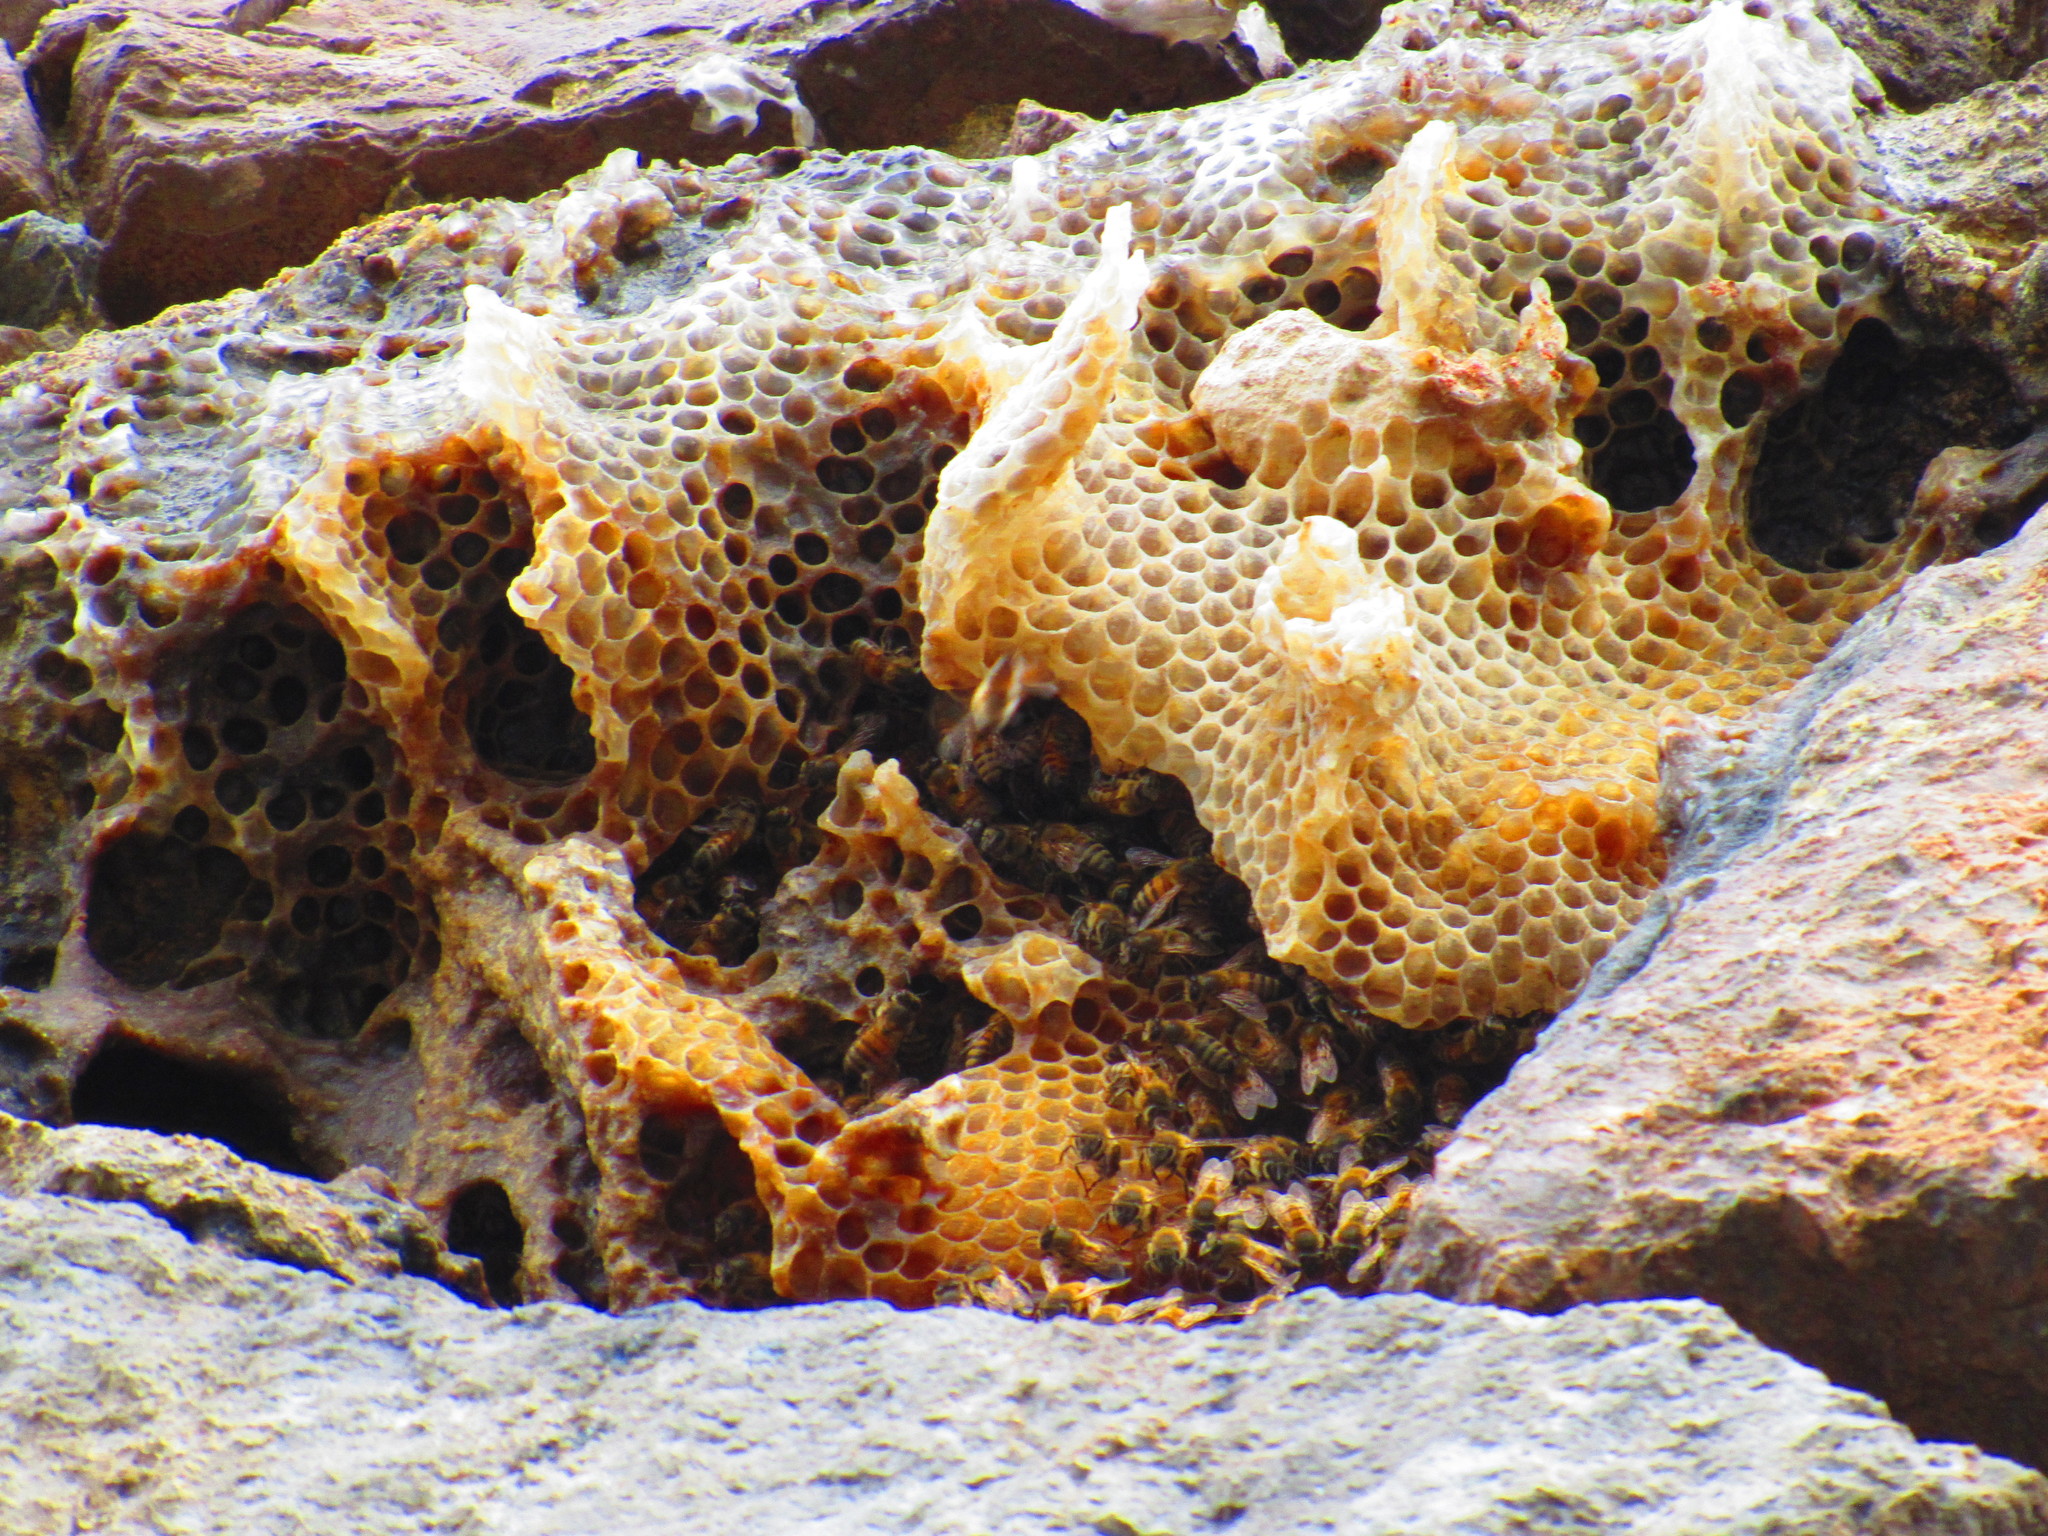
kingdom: Animalia
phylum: Arthropoda
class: Insecta
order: Hymenoptera
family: Apidae
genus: Apis
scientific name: Apis mellifera
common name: Honey bee
